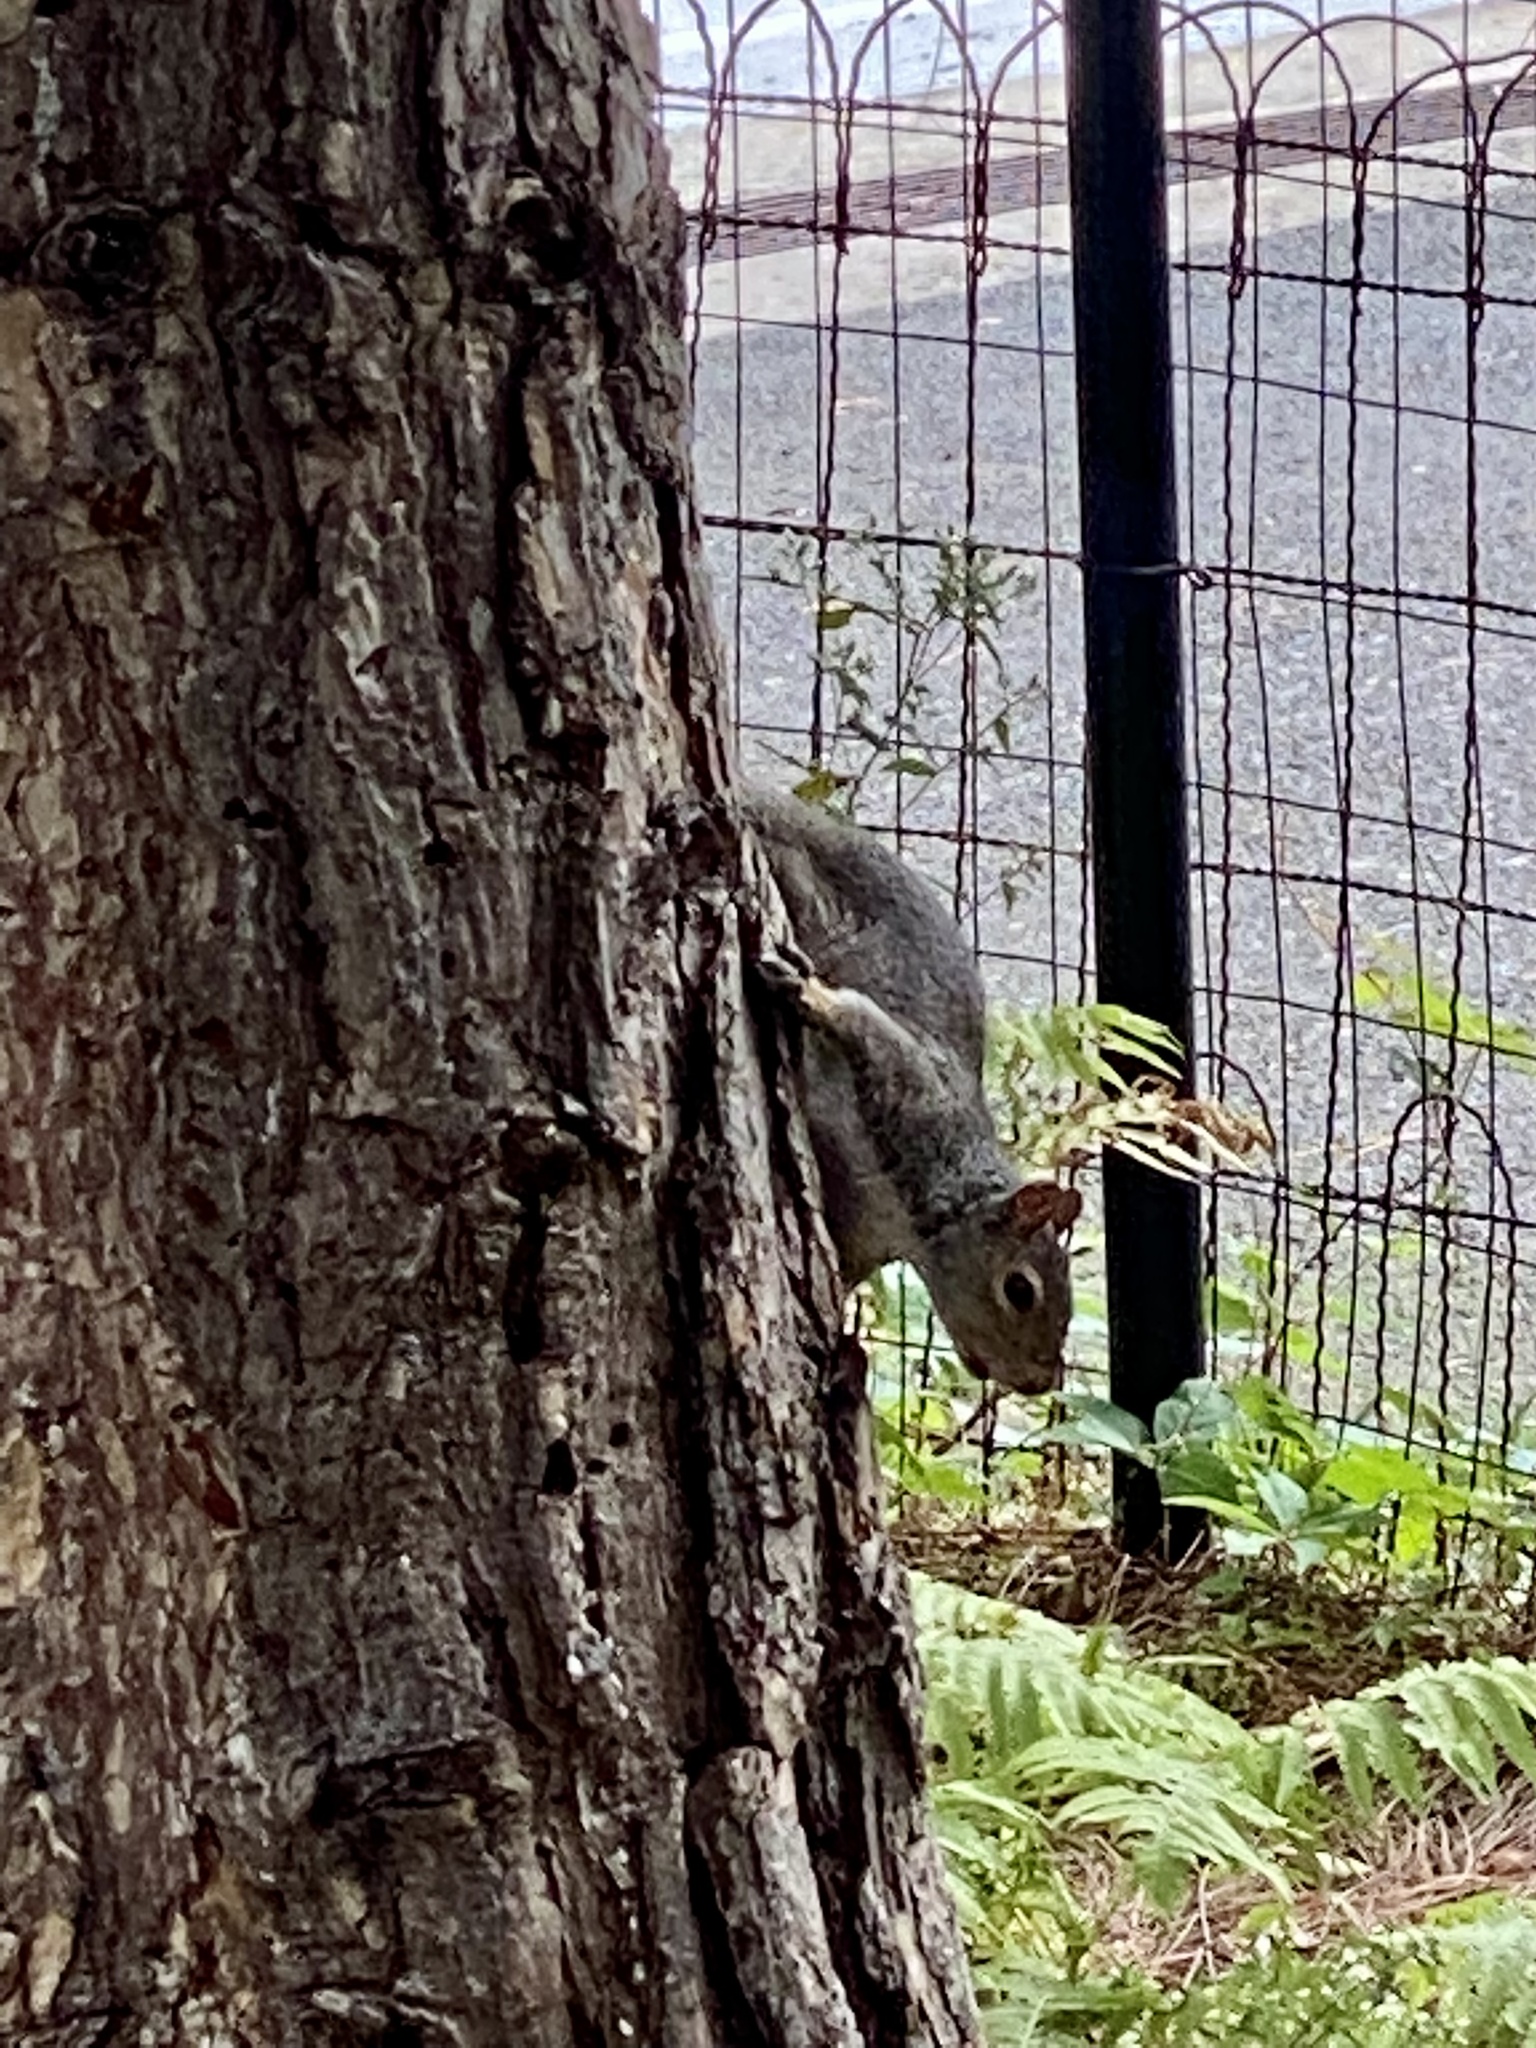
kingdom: Animalia
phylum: Chordata
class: Mammalia
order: Rodentia
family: Sciuridae
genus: Sciurus
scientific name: Sciurus carolinensis
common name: Eastern gray squirrel
